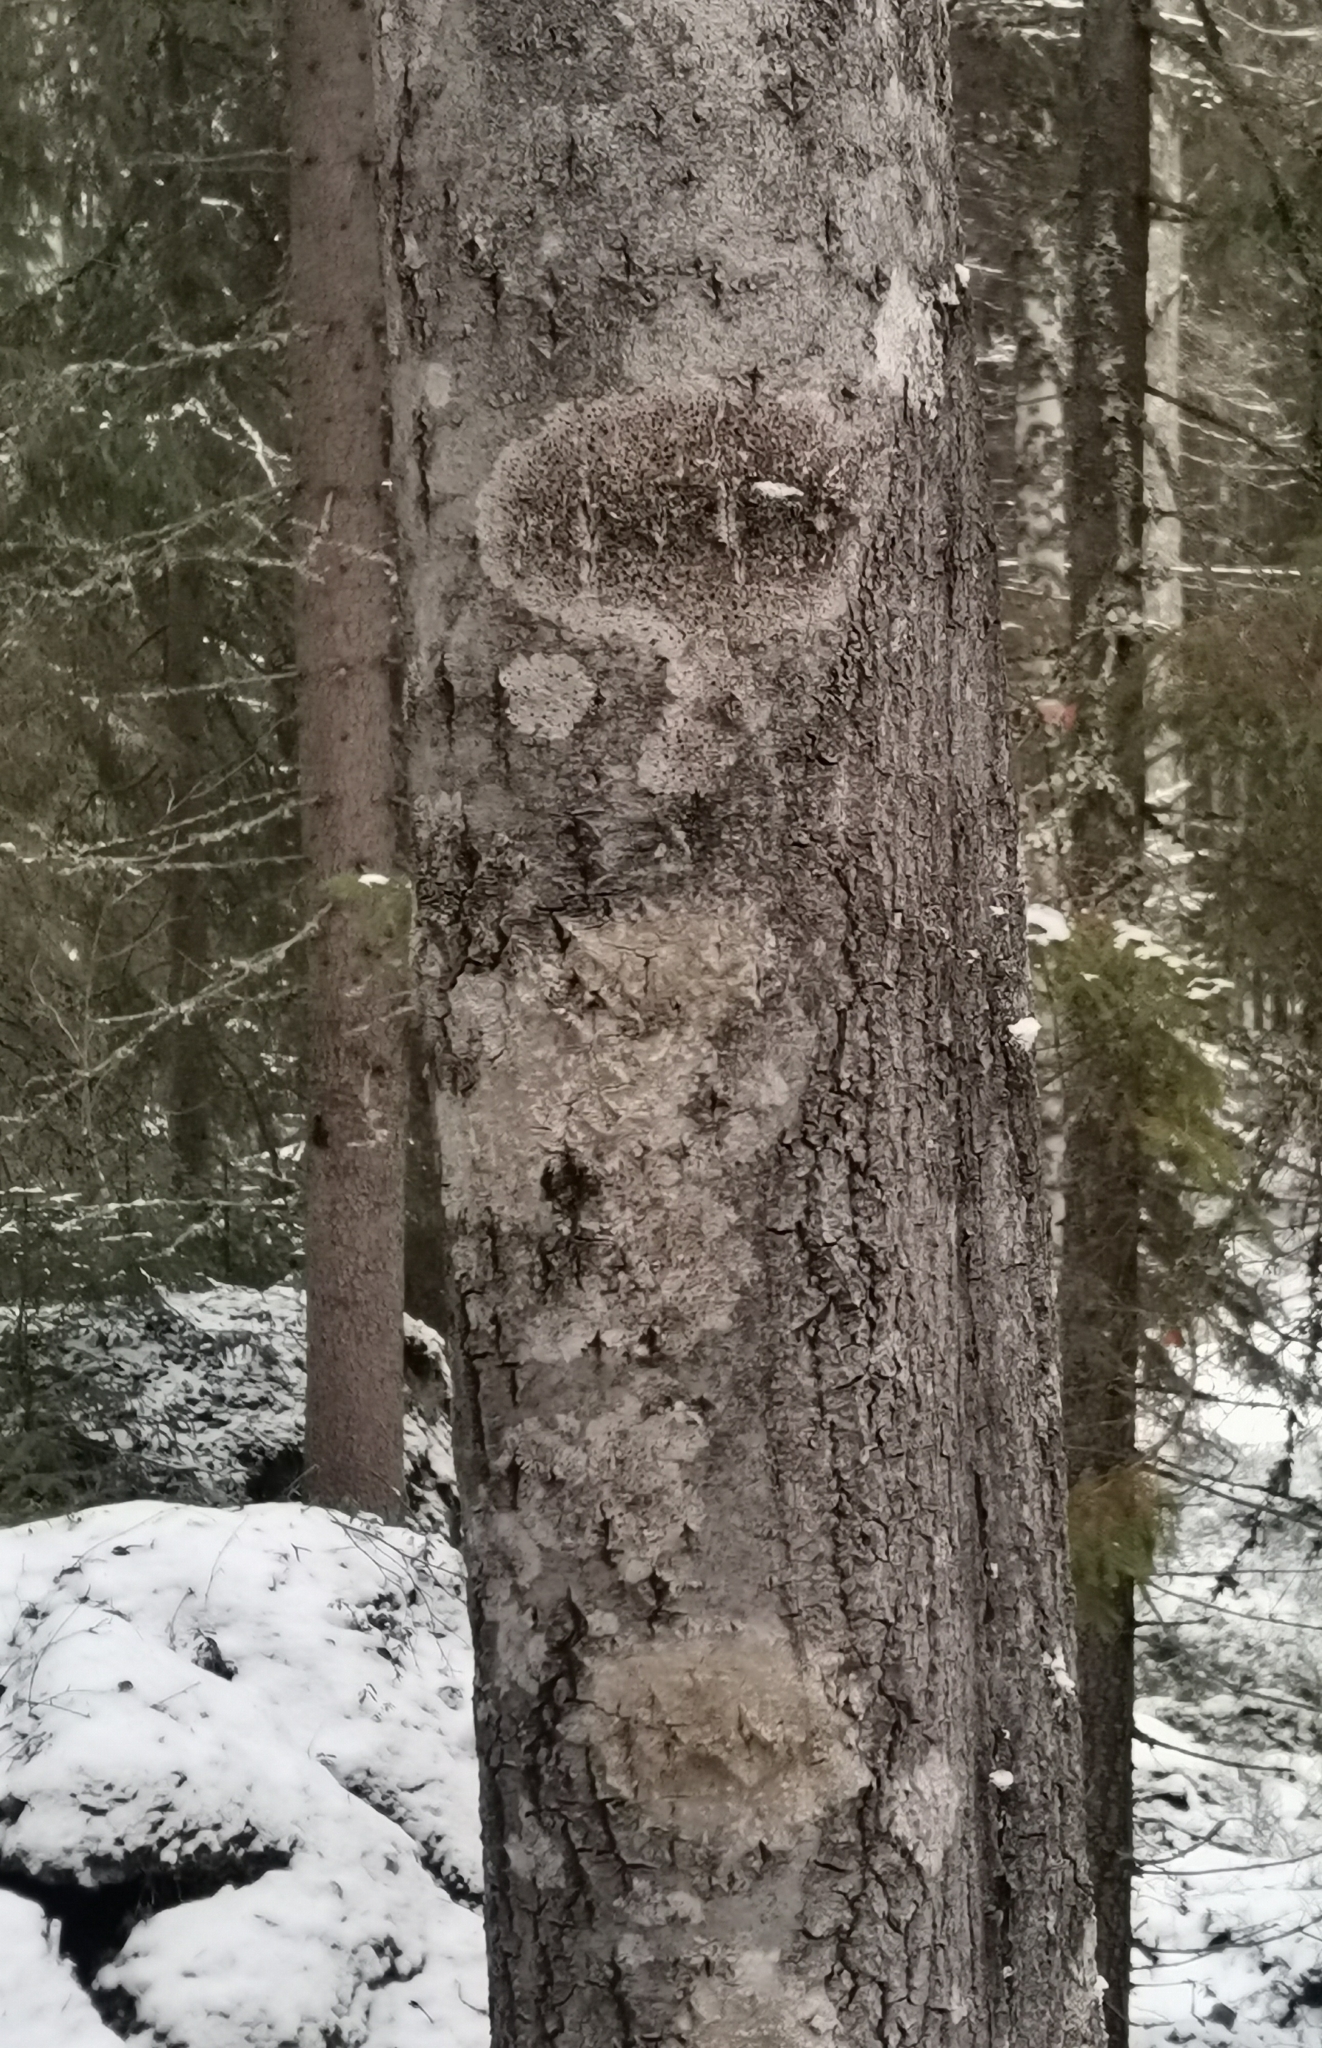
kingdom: Fungi
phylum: Ascomycota
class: Lecanoromycetes
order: Lecanorales
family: Lecanoraceae
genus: Lecidella
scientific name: Lecidella elaeochroma
